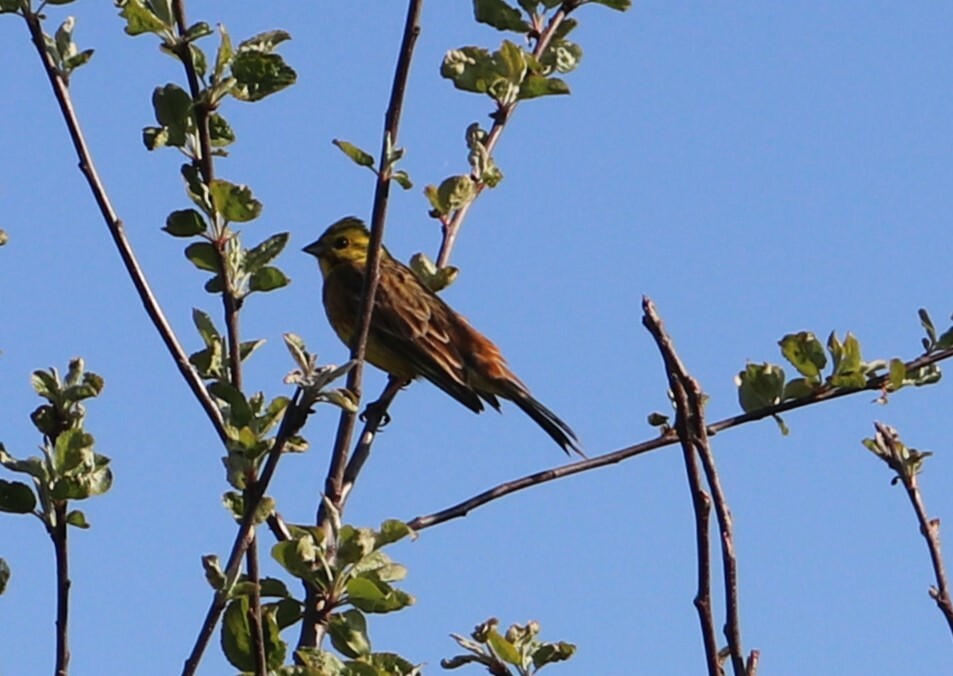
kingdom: Animalia
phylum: Chordata
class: Aves
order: Passeriformes
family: Emberizidae
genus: Emberiza
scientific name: Emberiza citrinella
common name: Yellowhammer
